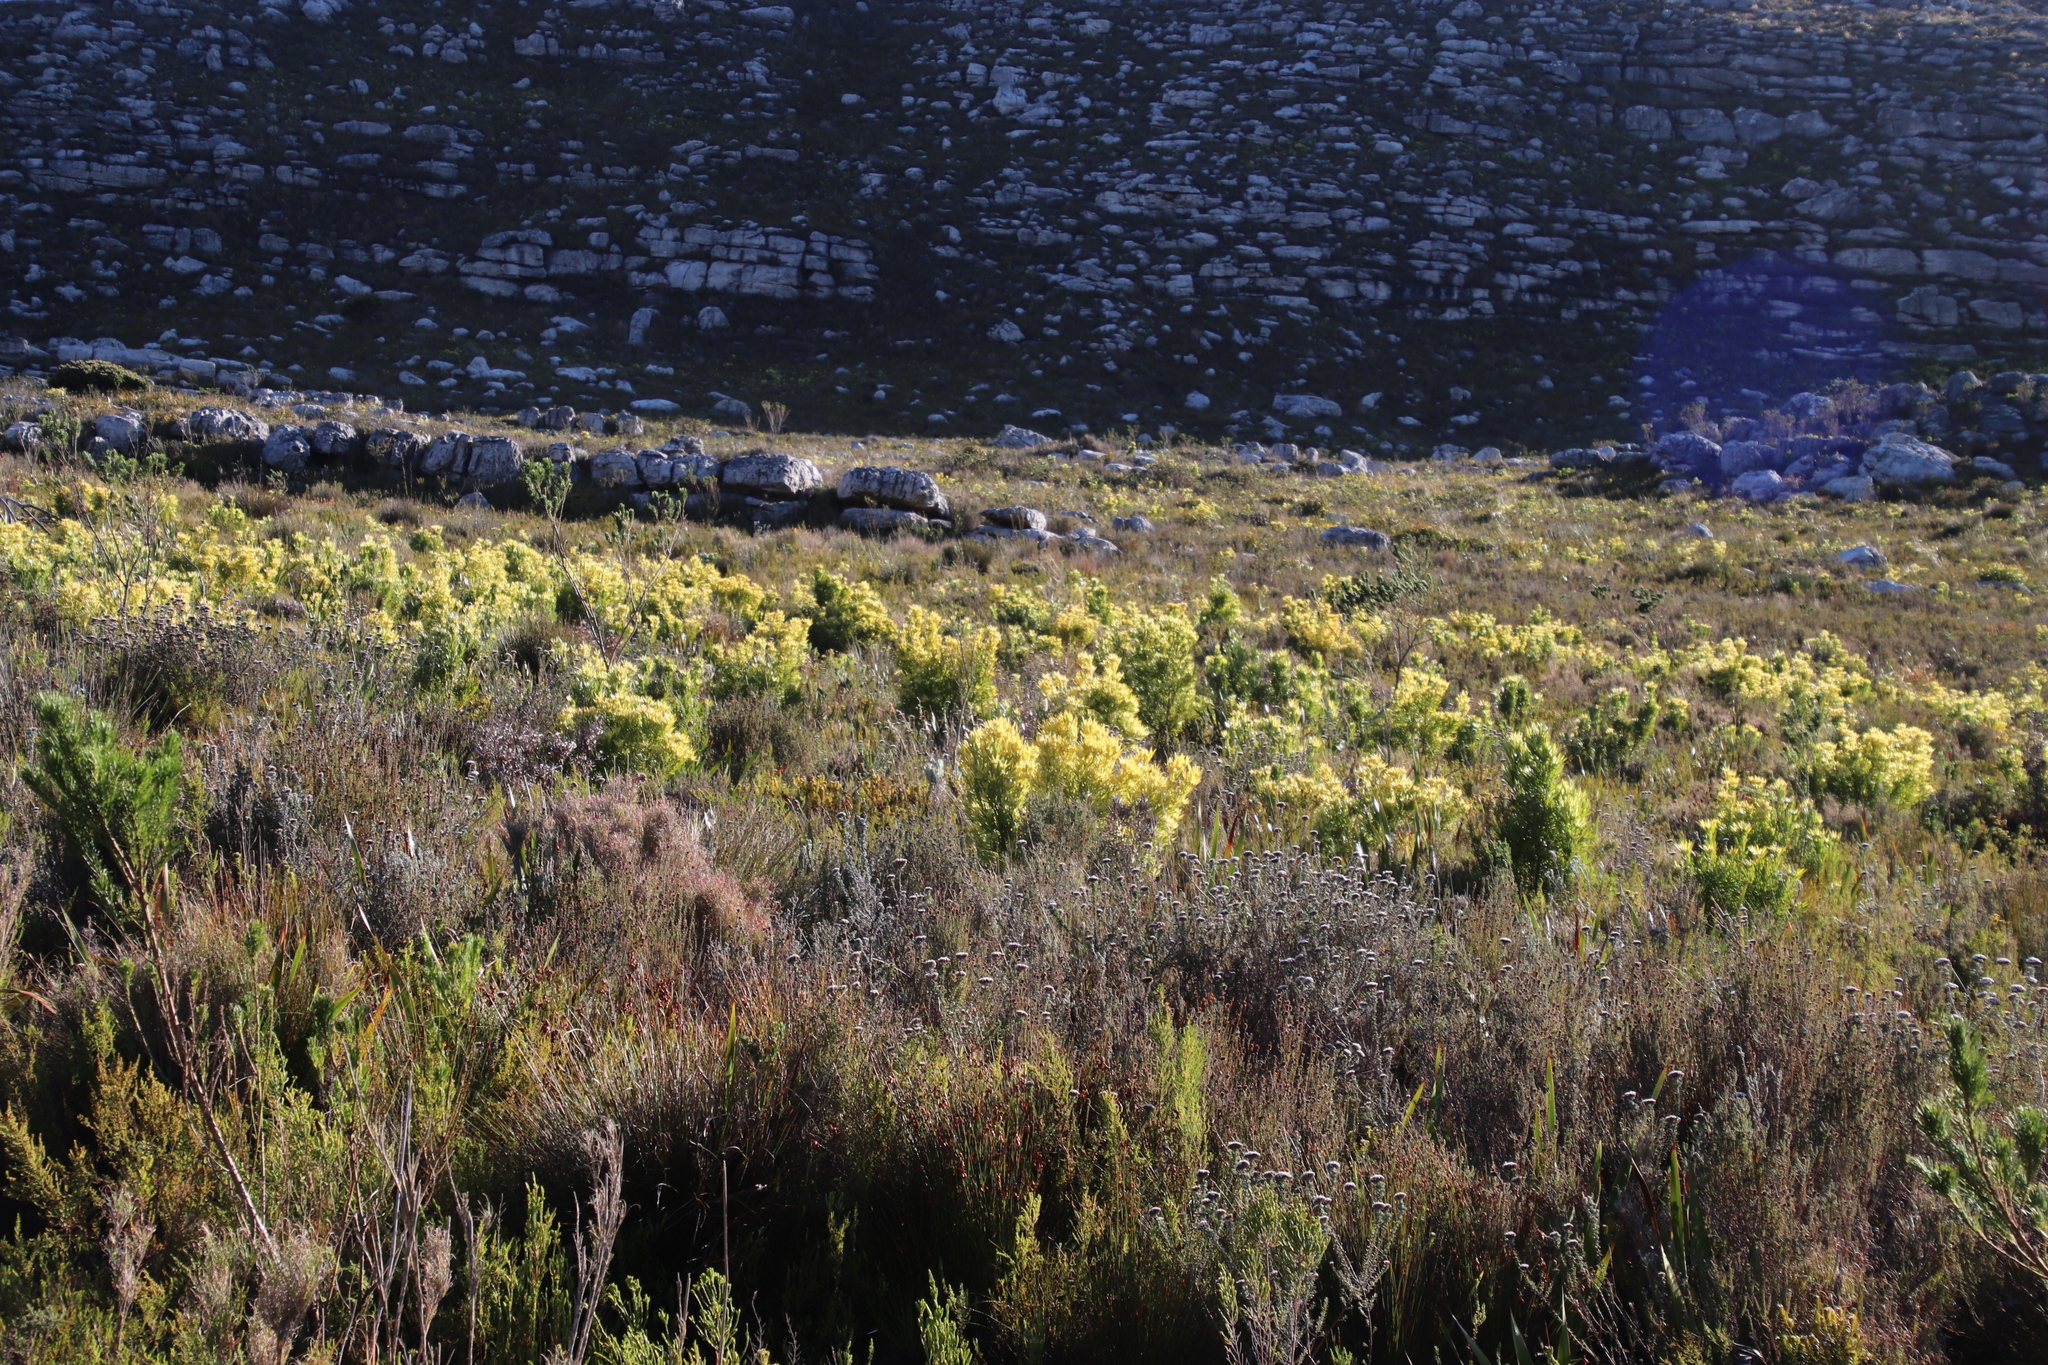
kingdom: Plantae
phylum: Tracheophyta
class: Magnoliopsida
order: Proteales
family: Proteaceae
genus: Leucadendron
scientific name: Leucadendron xanthoconus
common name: Sickle-leaf conebush
